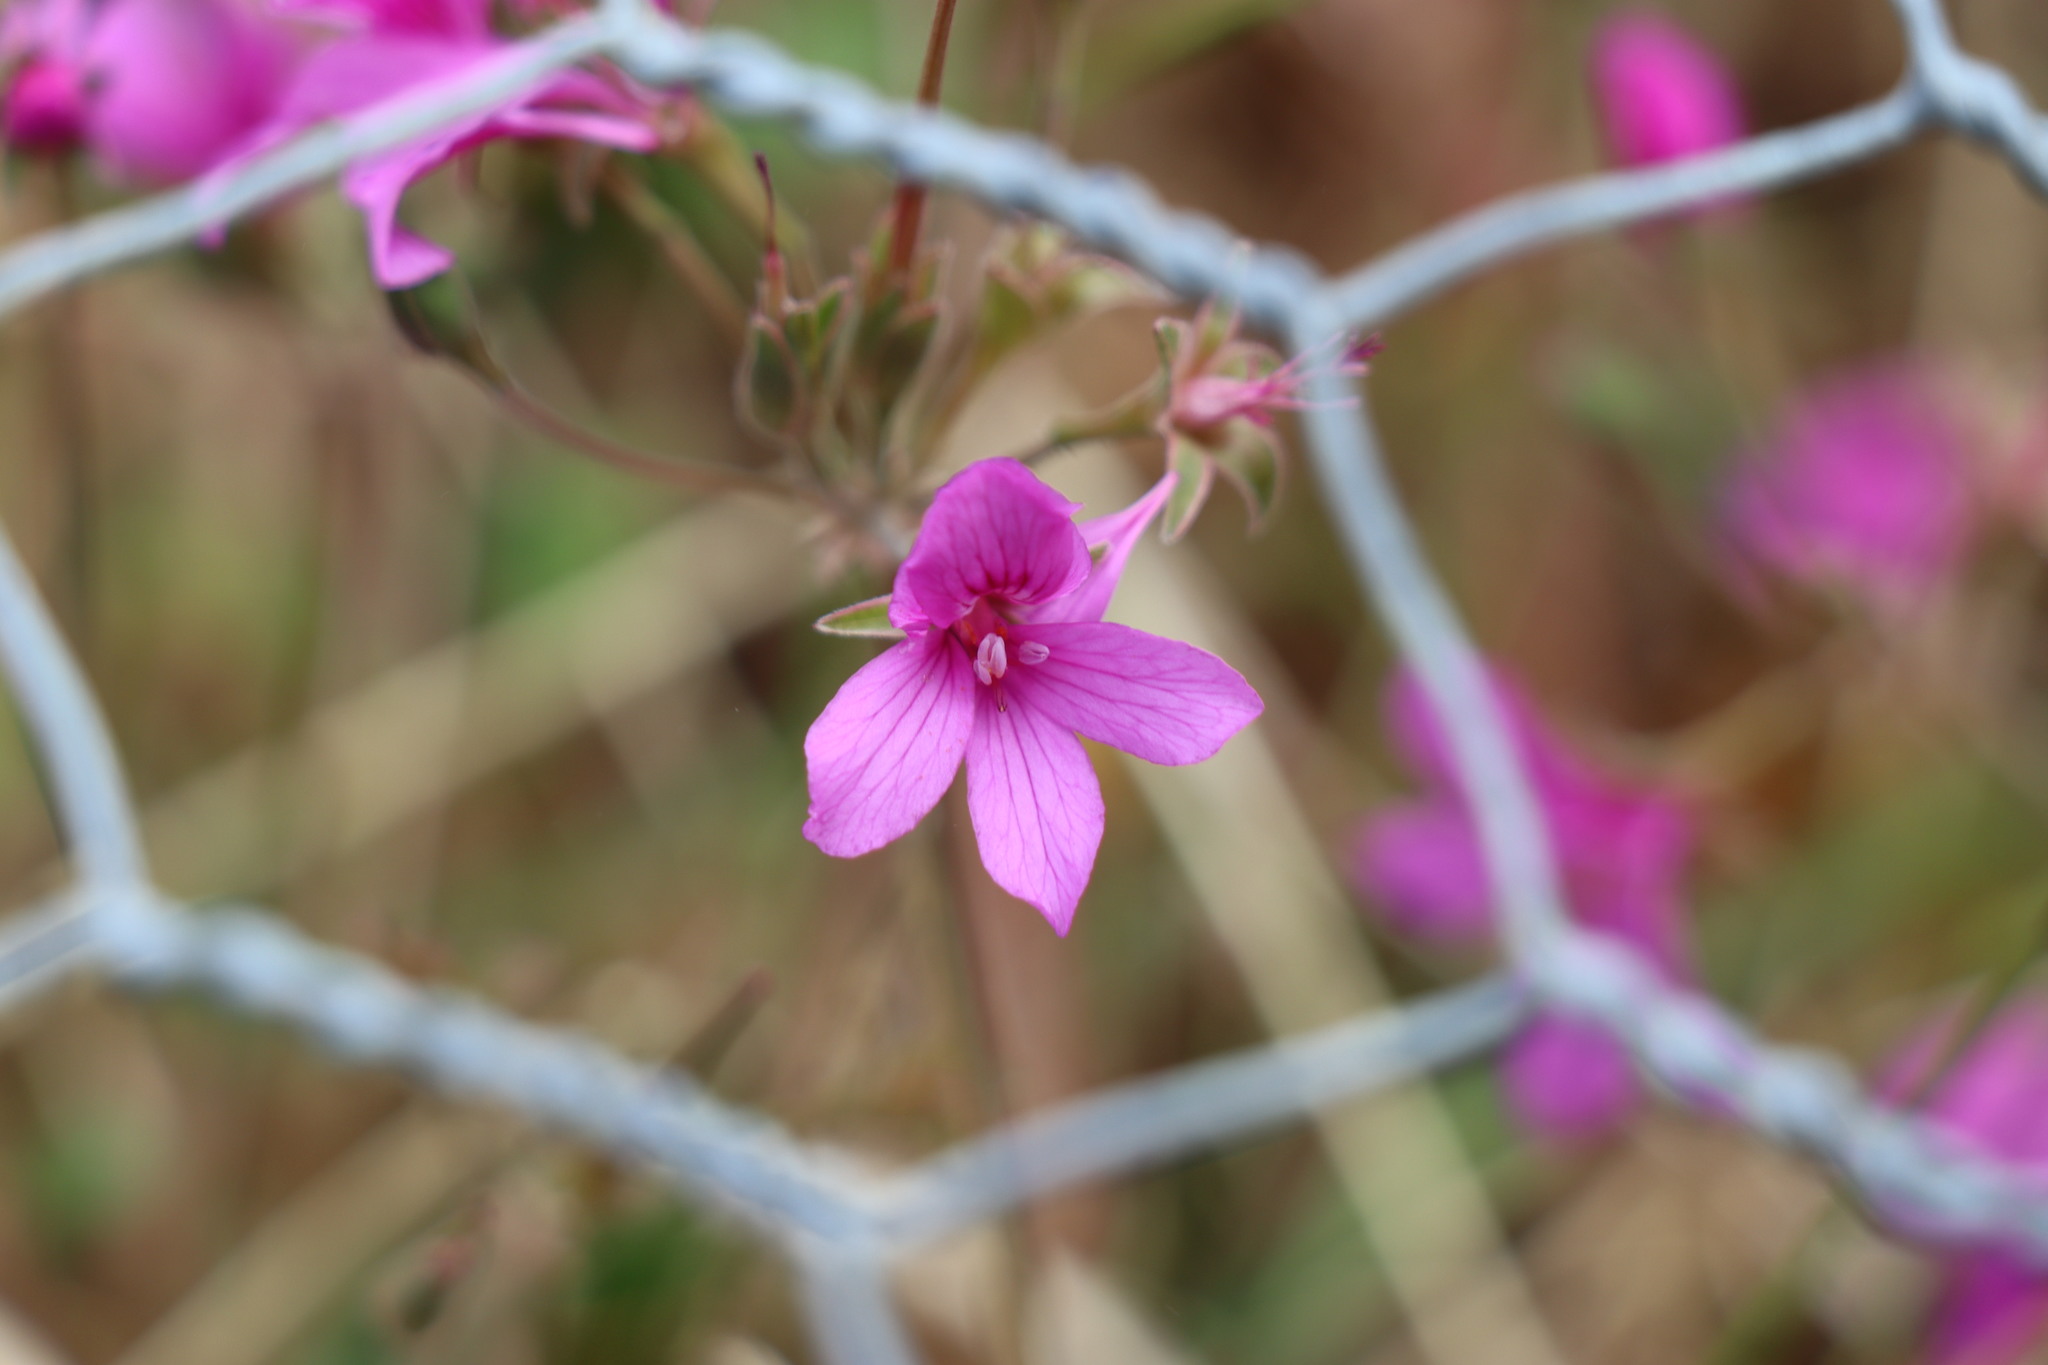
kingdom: Plantae
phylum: Tracheophyta
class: Magnoliopsida
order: Geraniales
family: Geraniaceae
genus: Pelargonium
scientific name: Pelargonium rodneyanum
